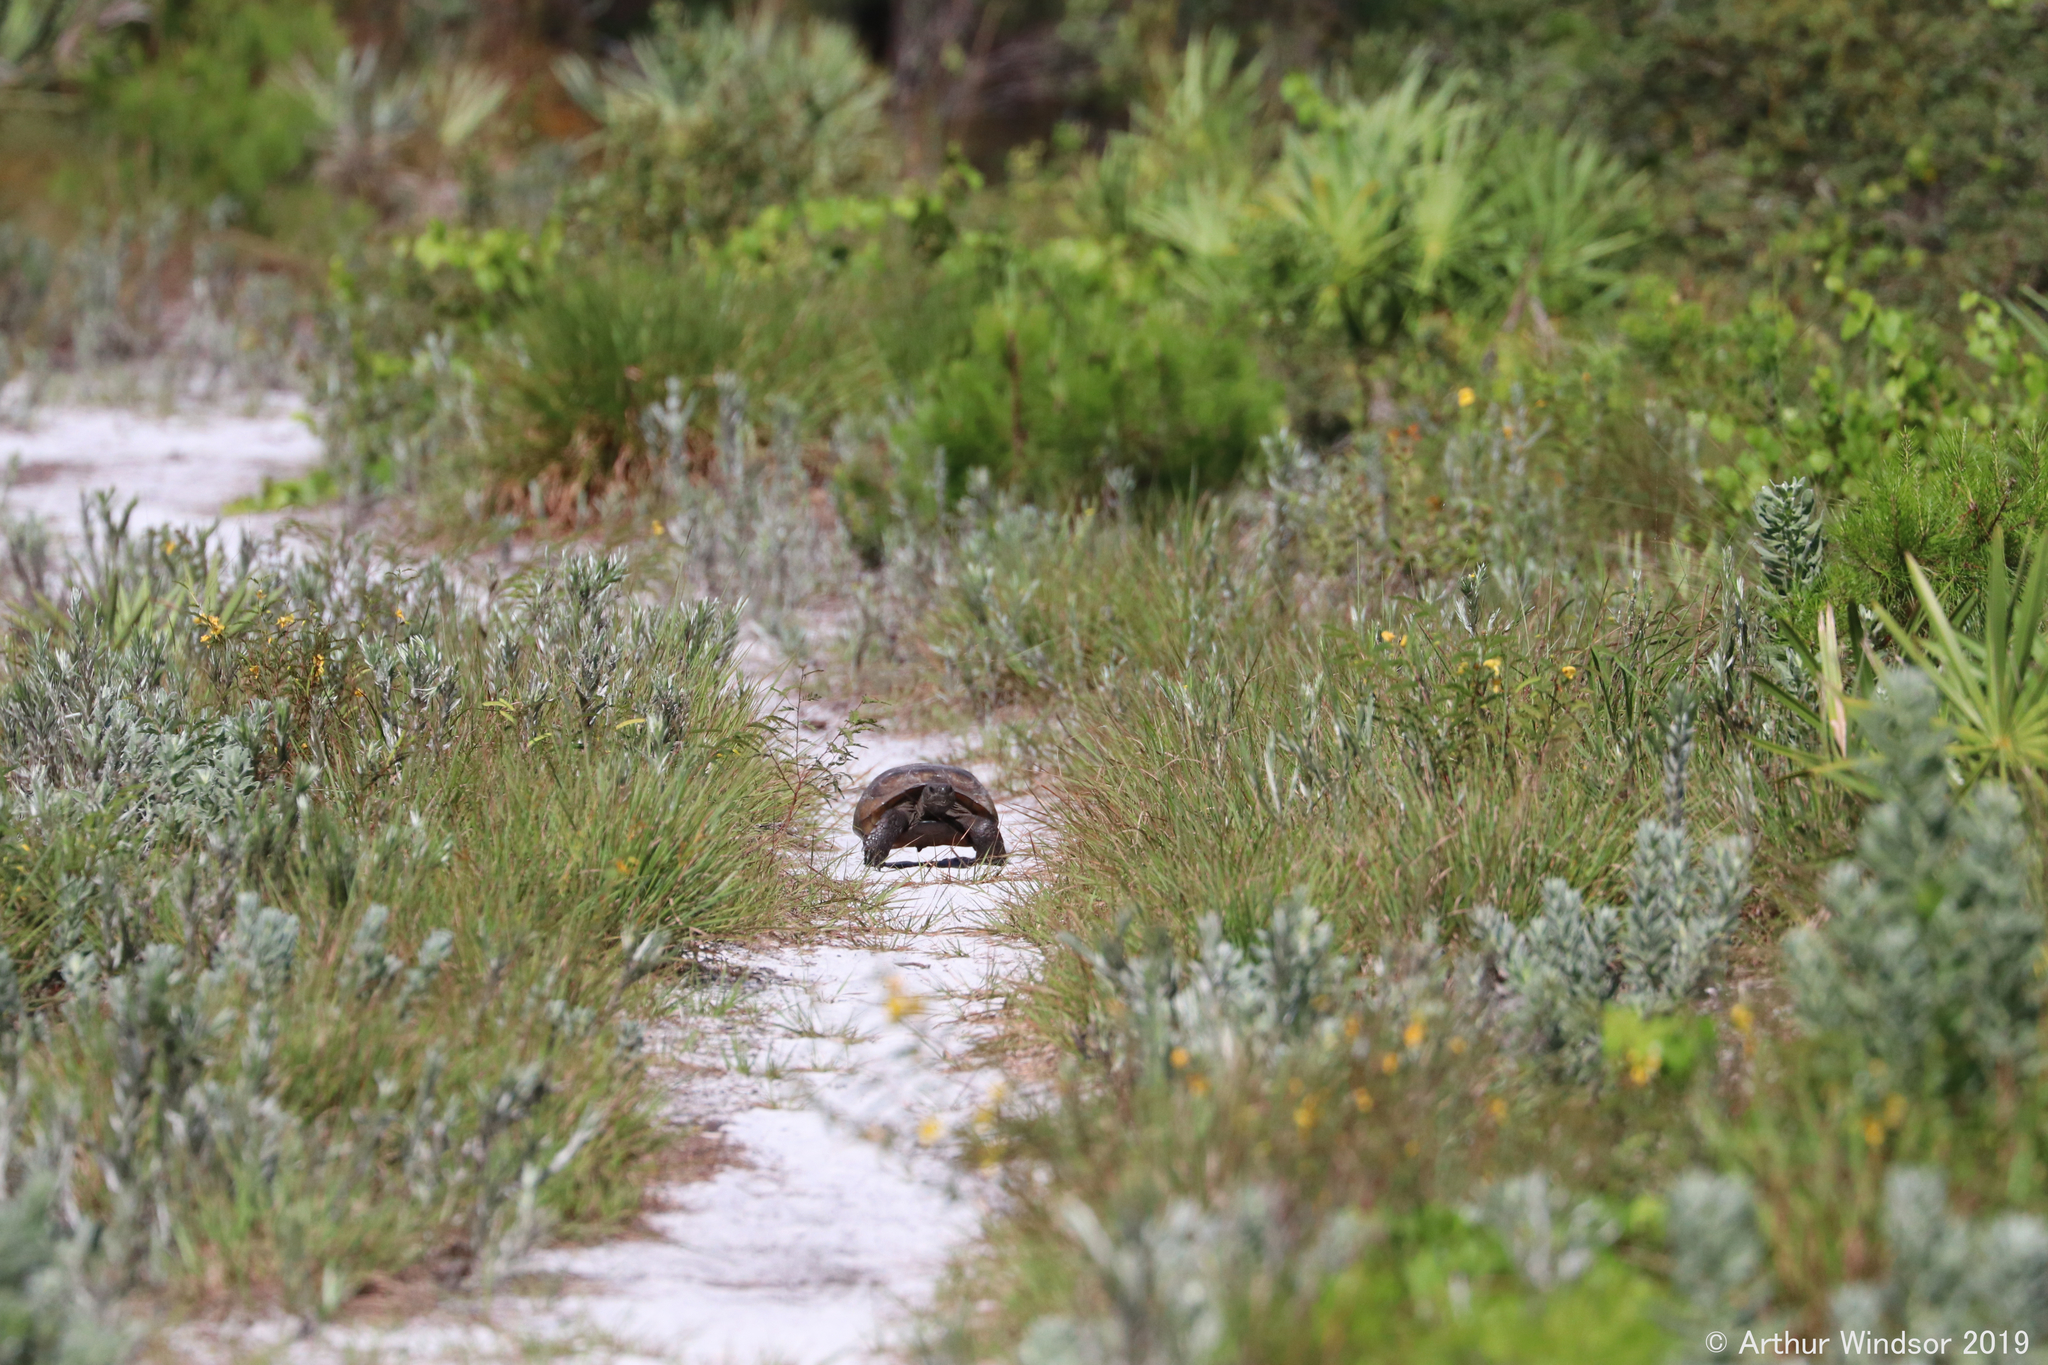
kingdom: Animalia
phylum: Chordata
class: Testudines
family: Testudinidae
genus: Gopherus
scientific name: Gopherus polyphemus
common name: Florida gopher tortoise
